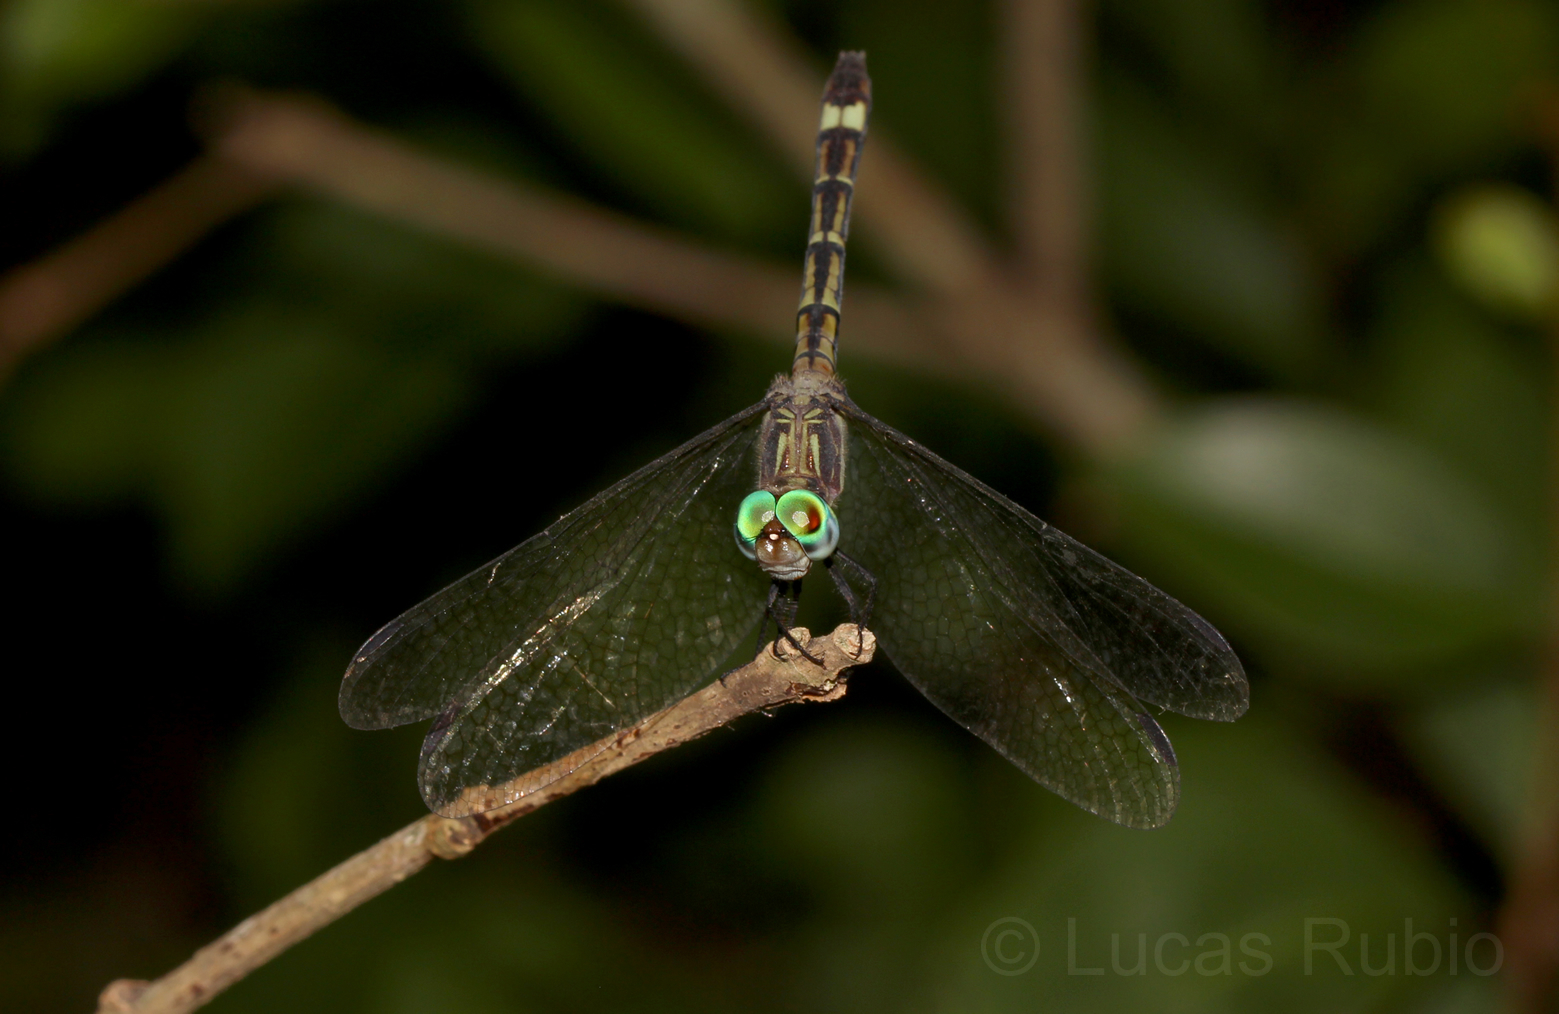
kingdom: Animalia
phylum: Arthropoda
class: Insecta
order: Odonata
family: Libellulidae
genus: Micrathyria
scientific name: Micrathyria hypodidyma
